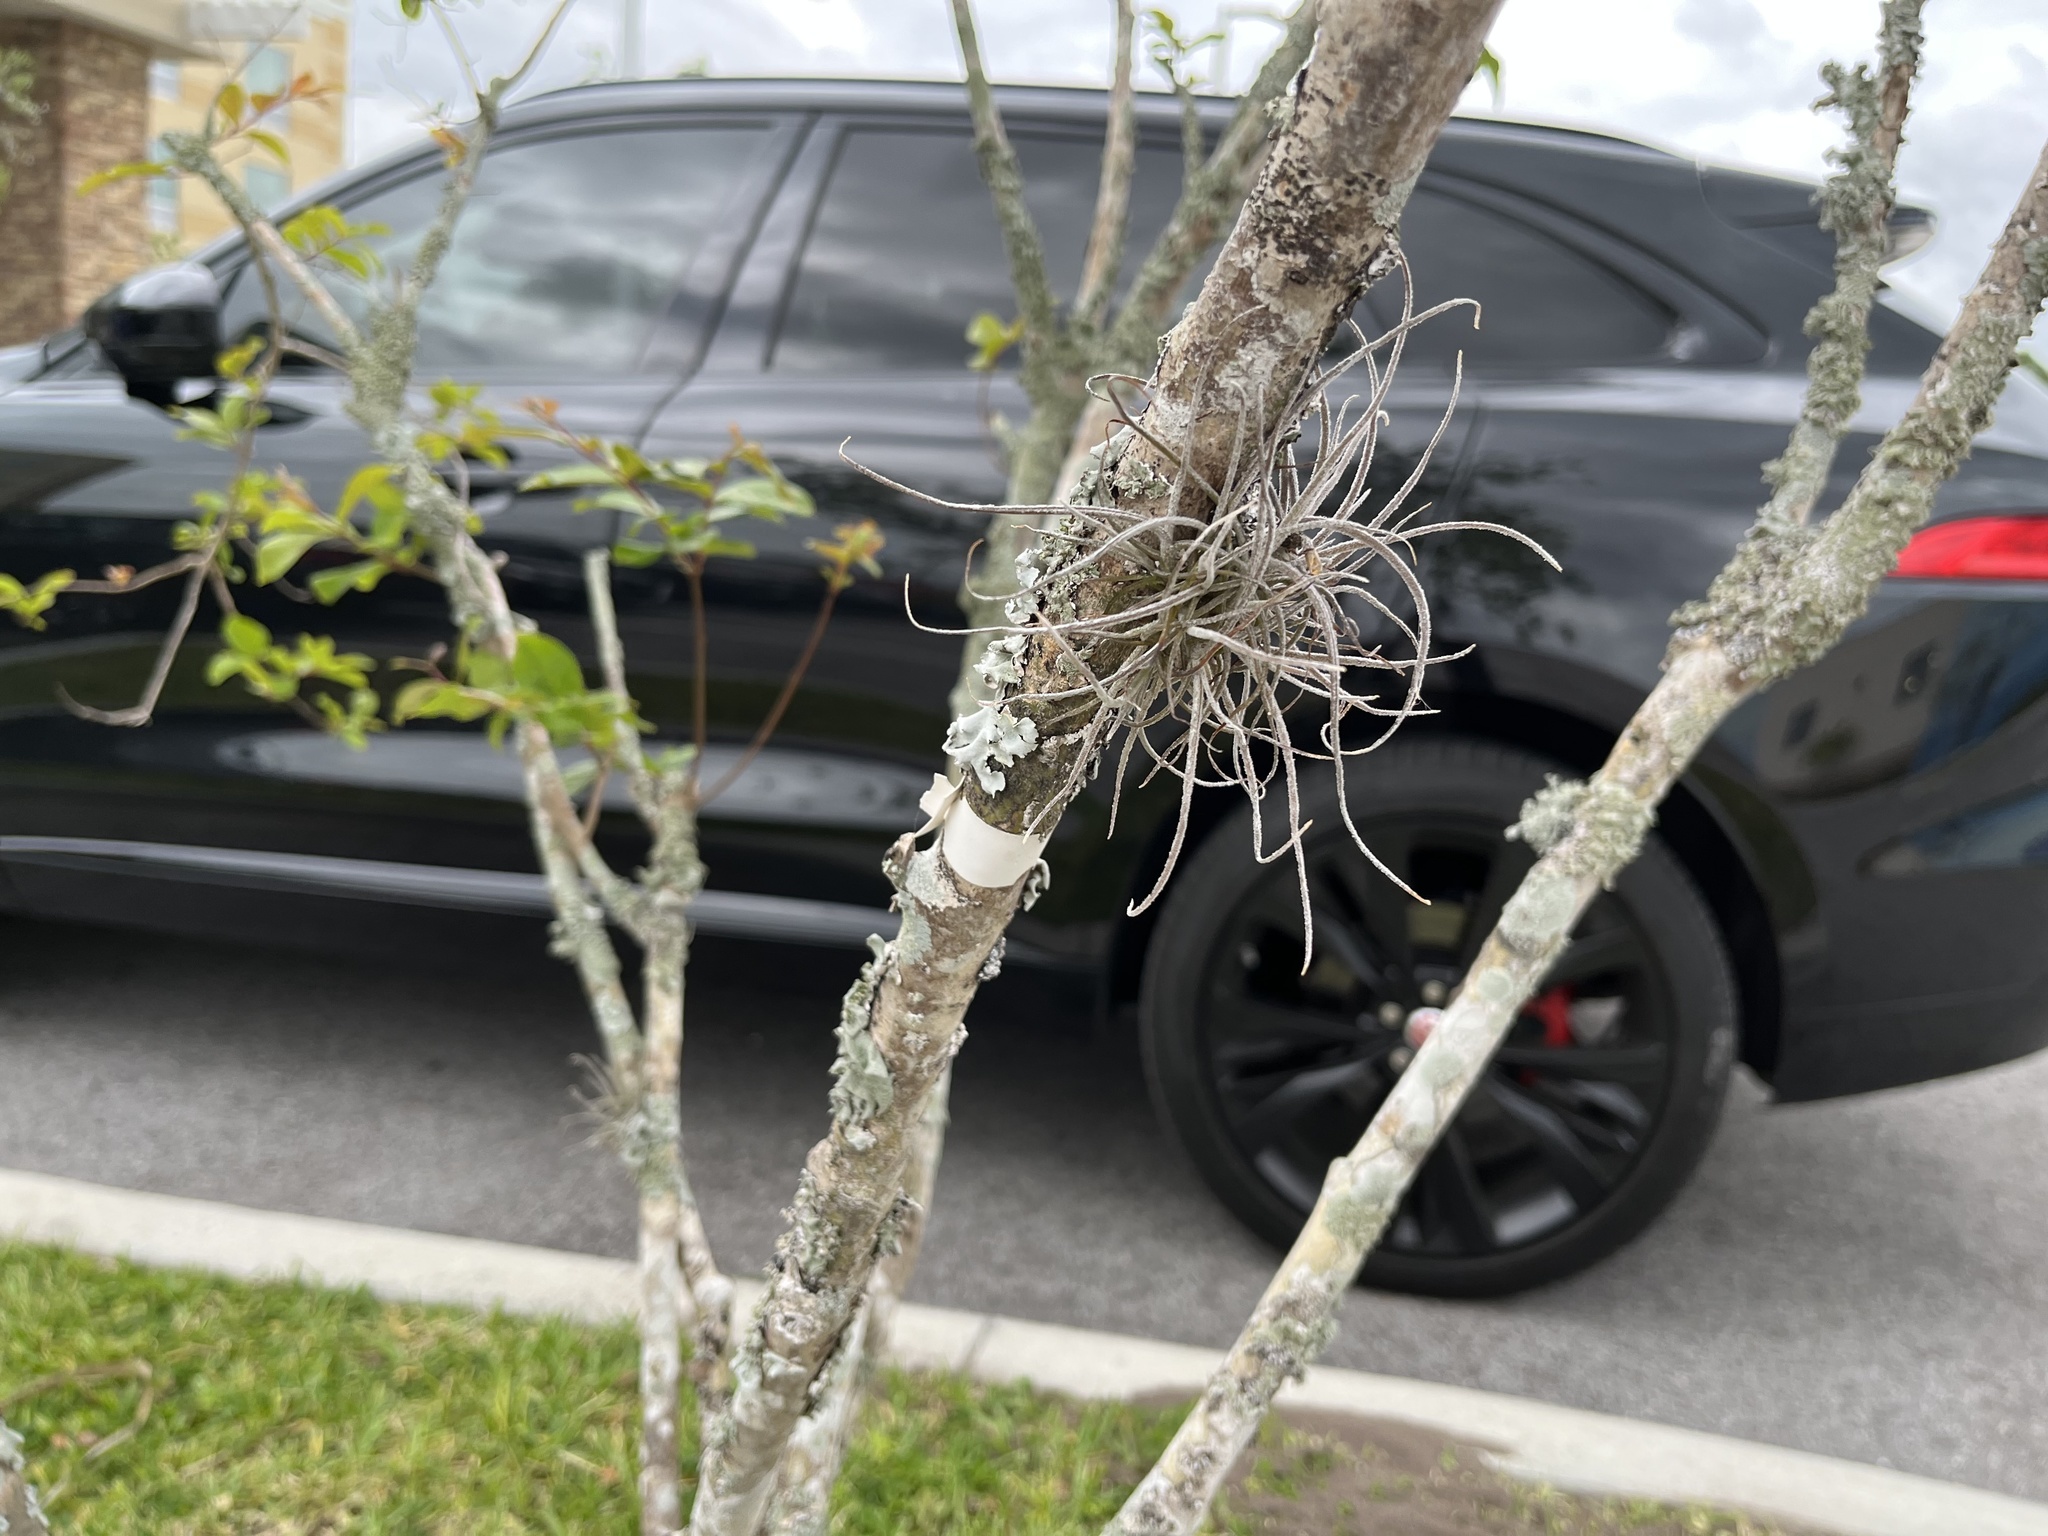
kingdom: Plantae
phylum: Tracheophyta
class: Liliopsida
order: Poales
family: Bromeliaceae
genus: Tillandsia
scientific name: Tillandsia recurvata
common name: Small ballmoss
